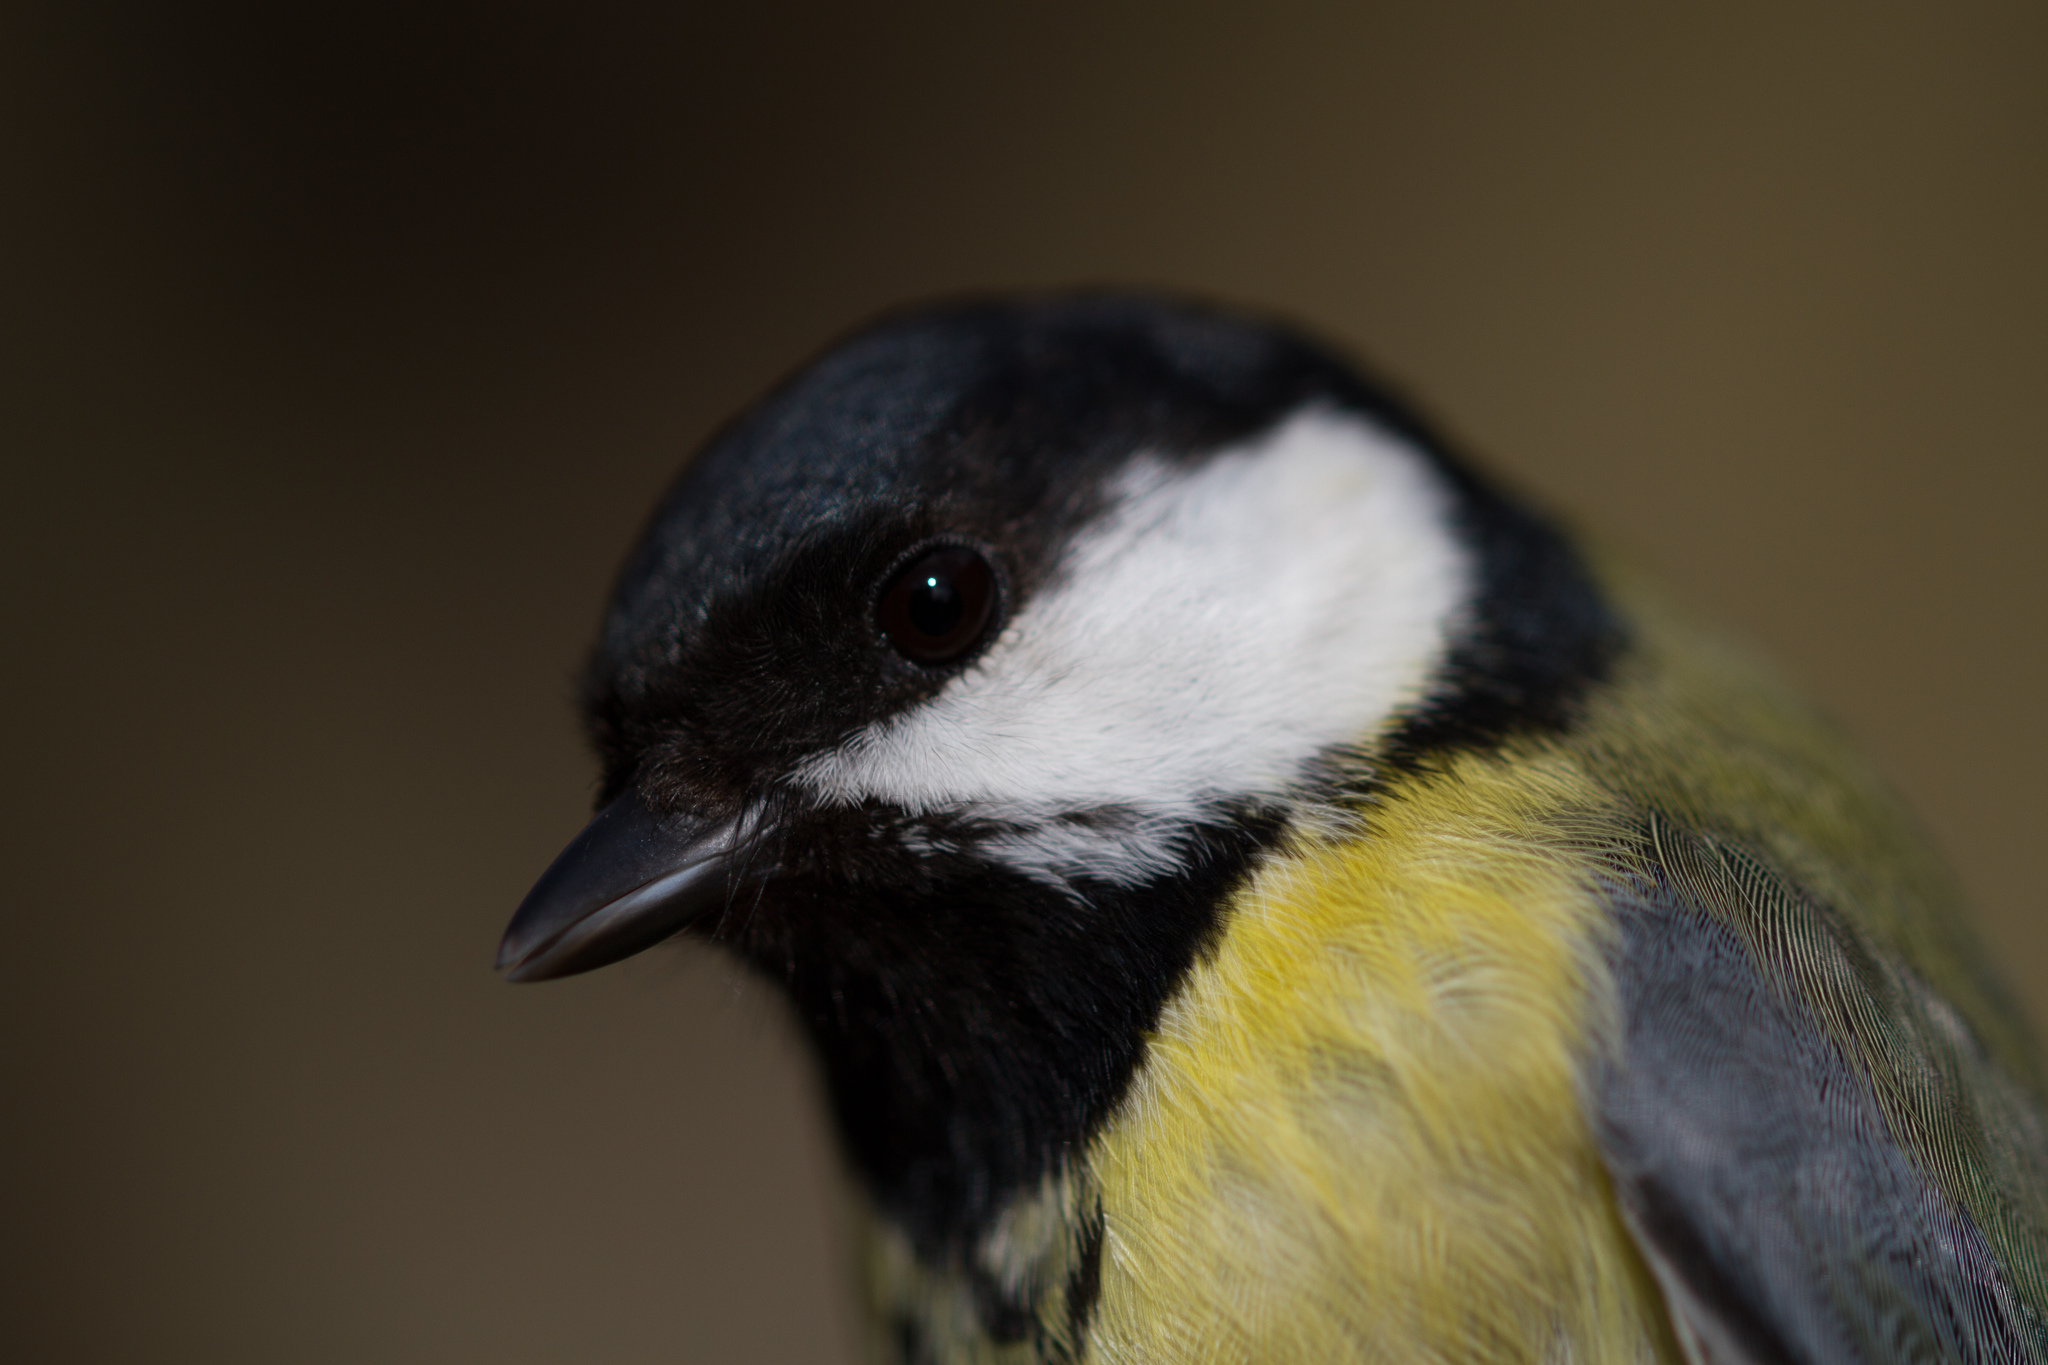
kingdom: Animalia
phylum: Chordata
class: Aves
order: Passeriformes
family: Paridae
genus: Parus
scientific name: Parus major
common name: Great tit
